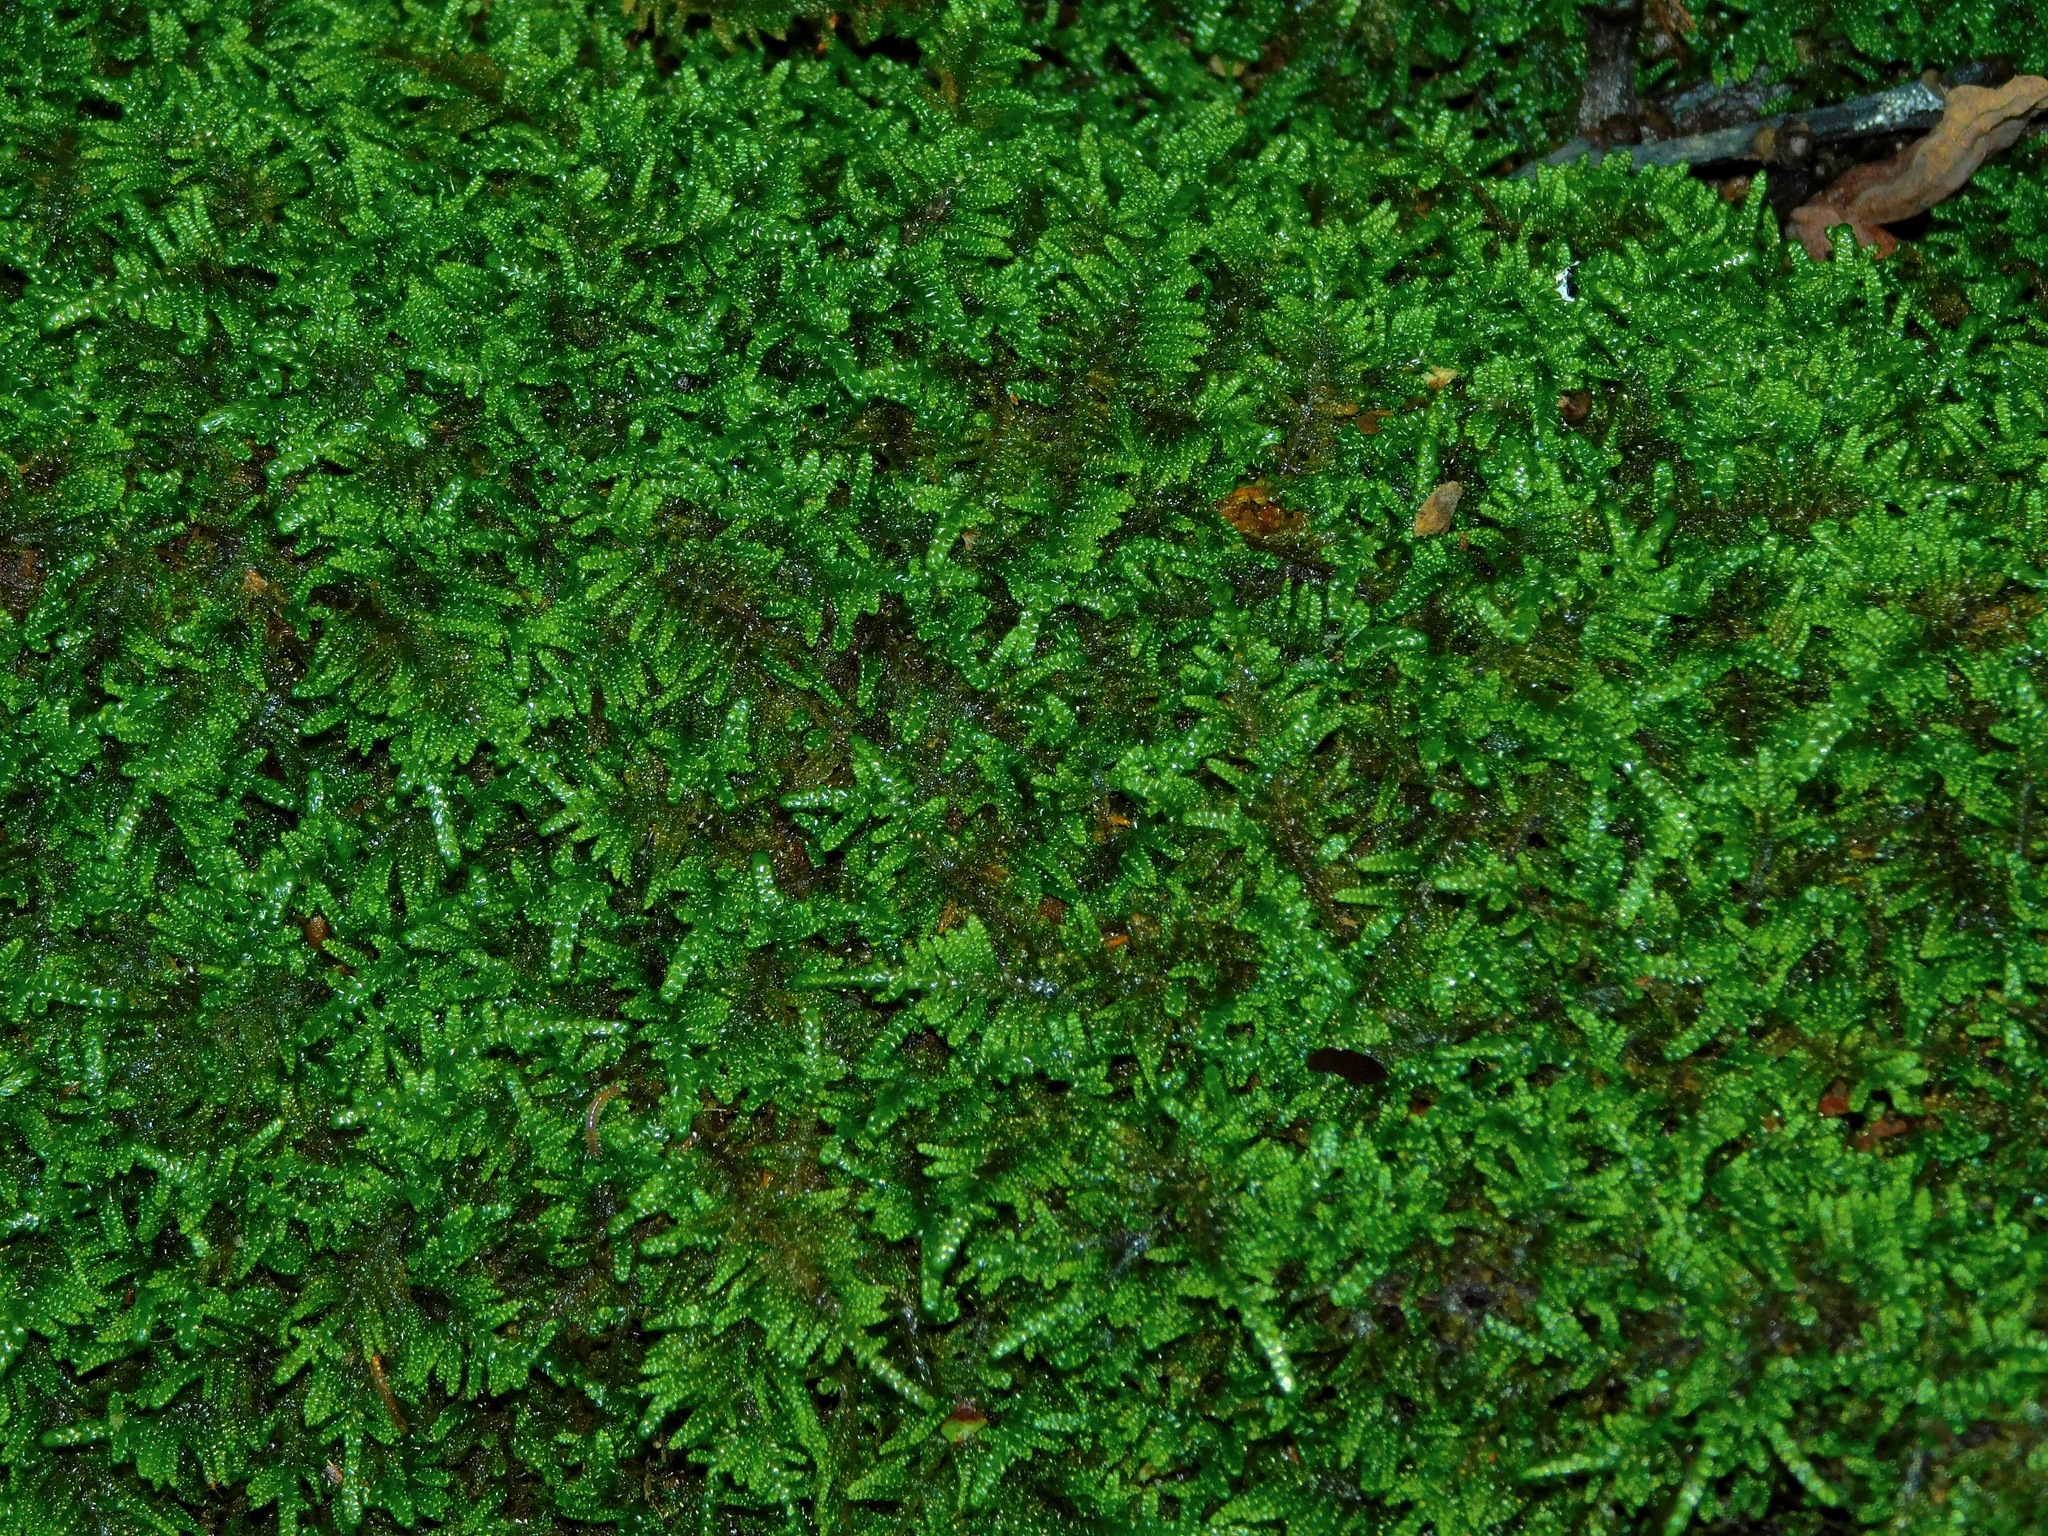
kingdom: Plantae
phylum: Bryophyta
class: Bryopsida
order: Hypnales
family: Callicladiaceae
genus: Callicladium
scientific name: Callicladium imponens
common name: Brocade moss
